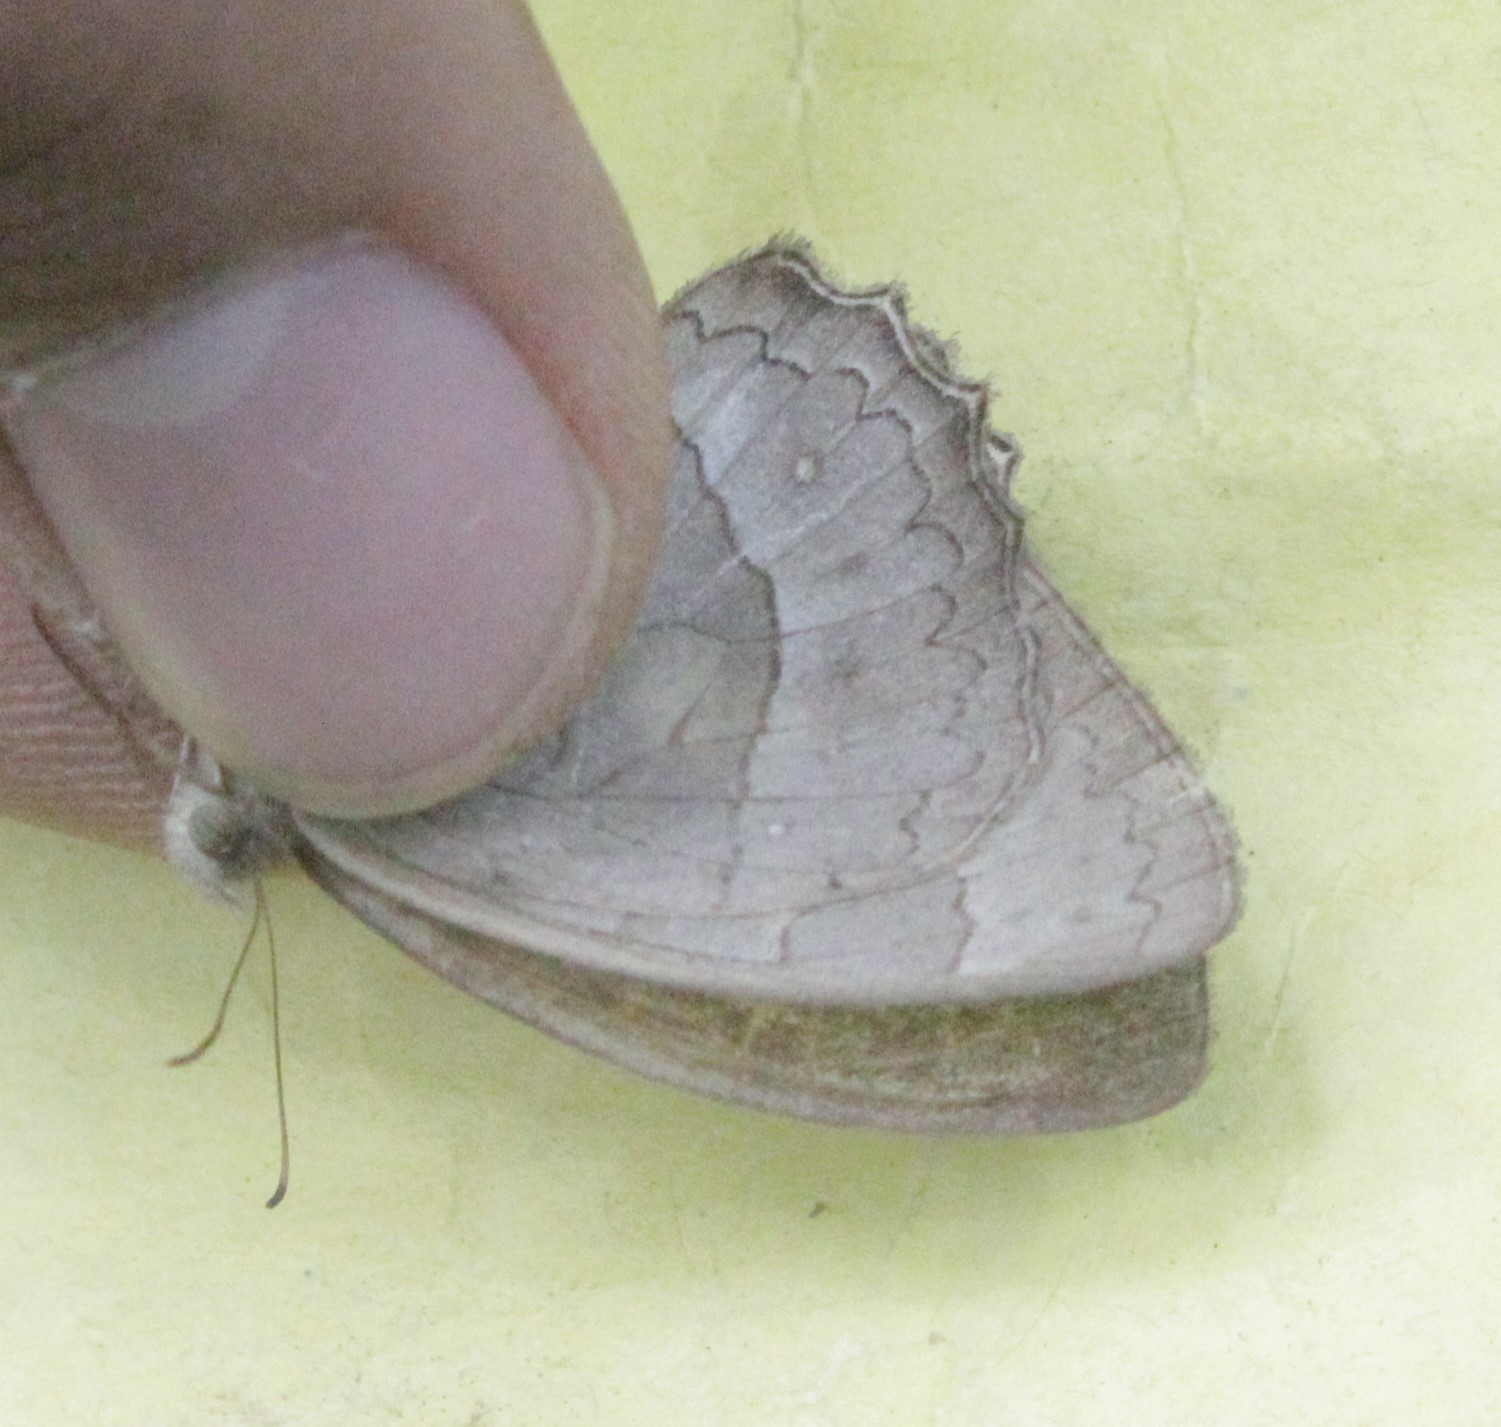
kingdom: Animalia
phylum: Arthropoda
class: Insecta
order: Lepidoptera
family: Nymphalidae
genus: Taygetina
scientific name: Taygetina kerea
